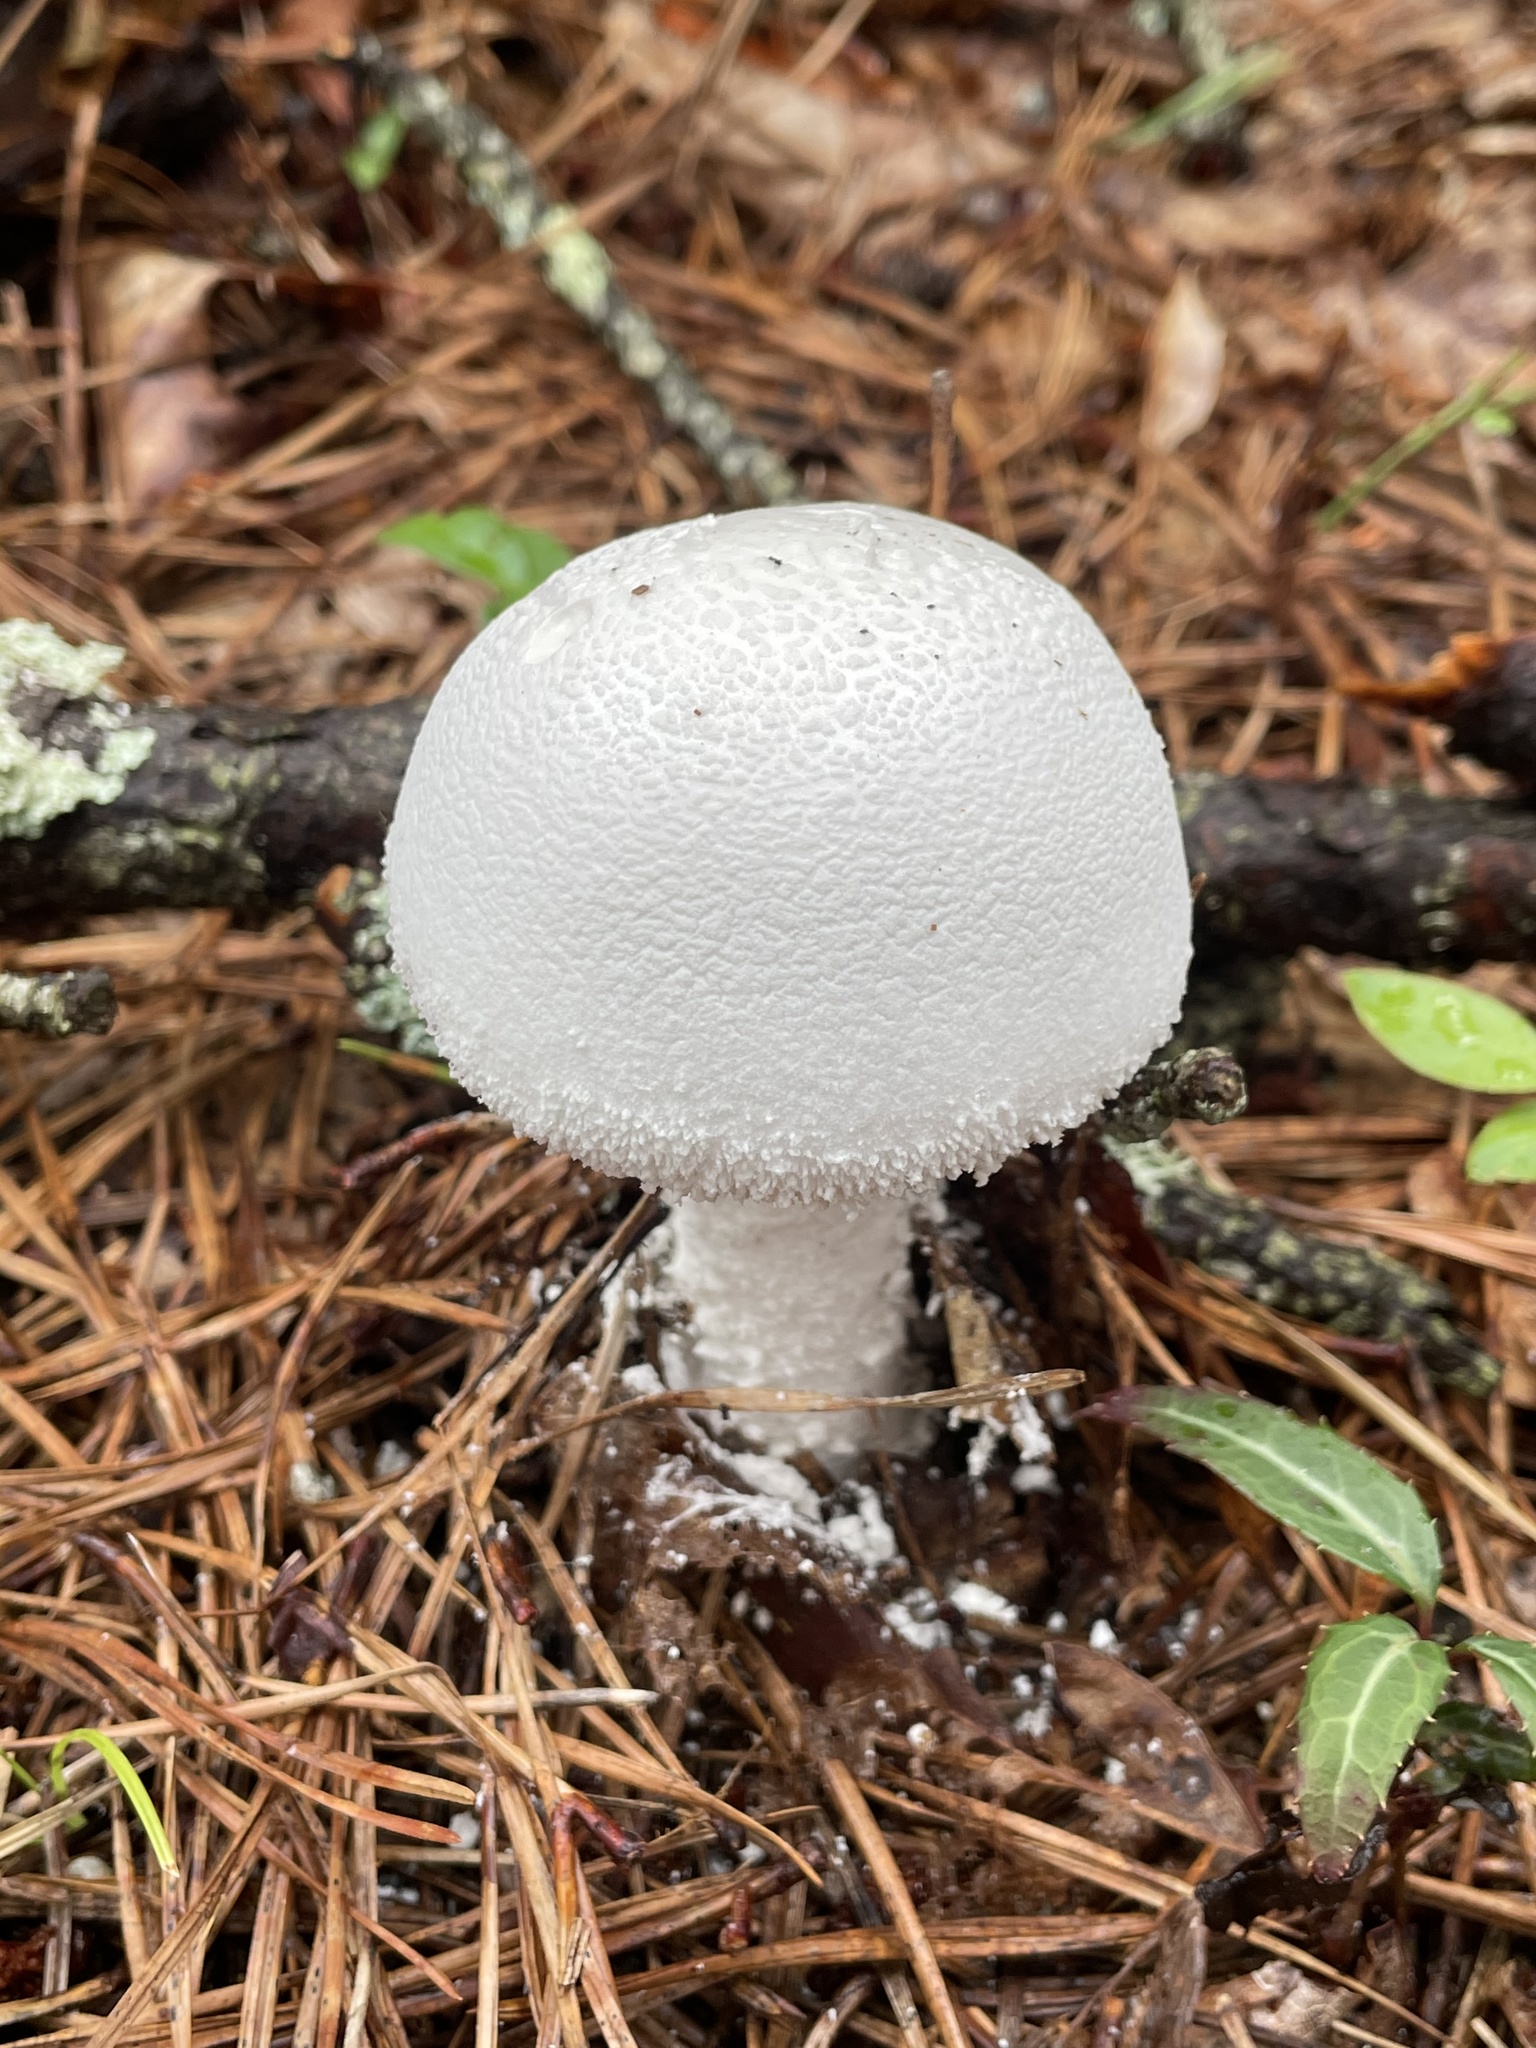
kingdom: Fungi
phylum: Basidiomycota
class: Agaricomycetes
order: Agaricales
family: Amanitaceae
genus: Amanita
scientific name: Amanita polypyramis
